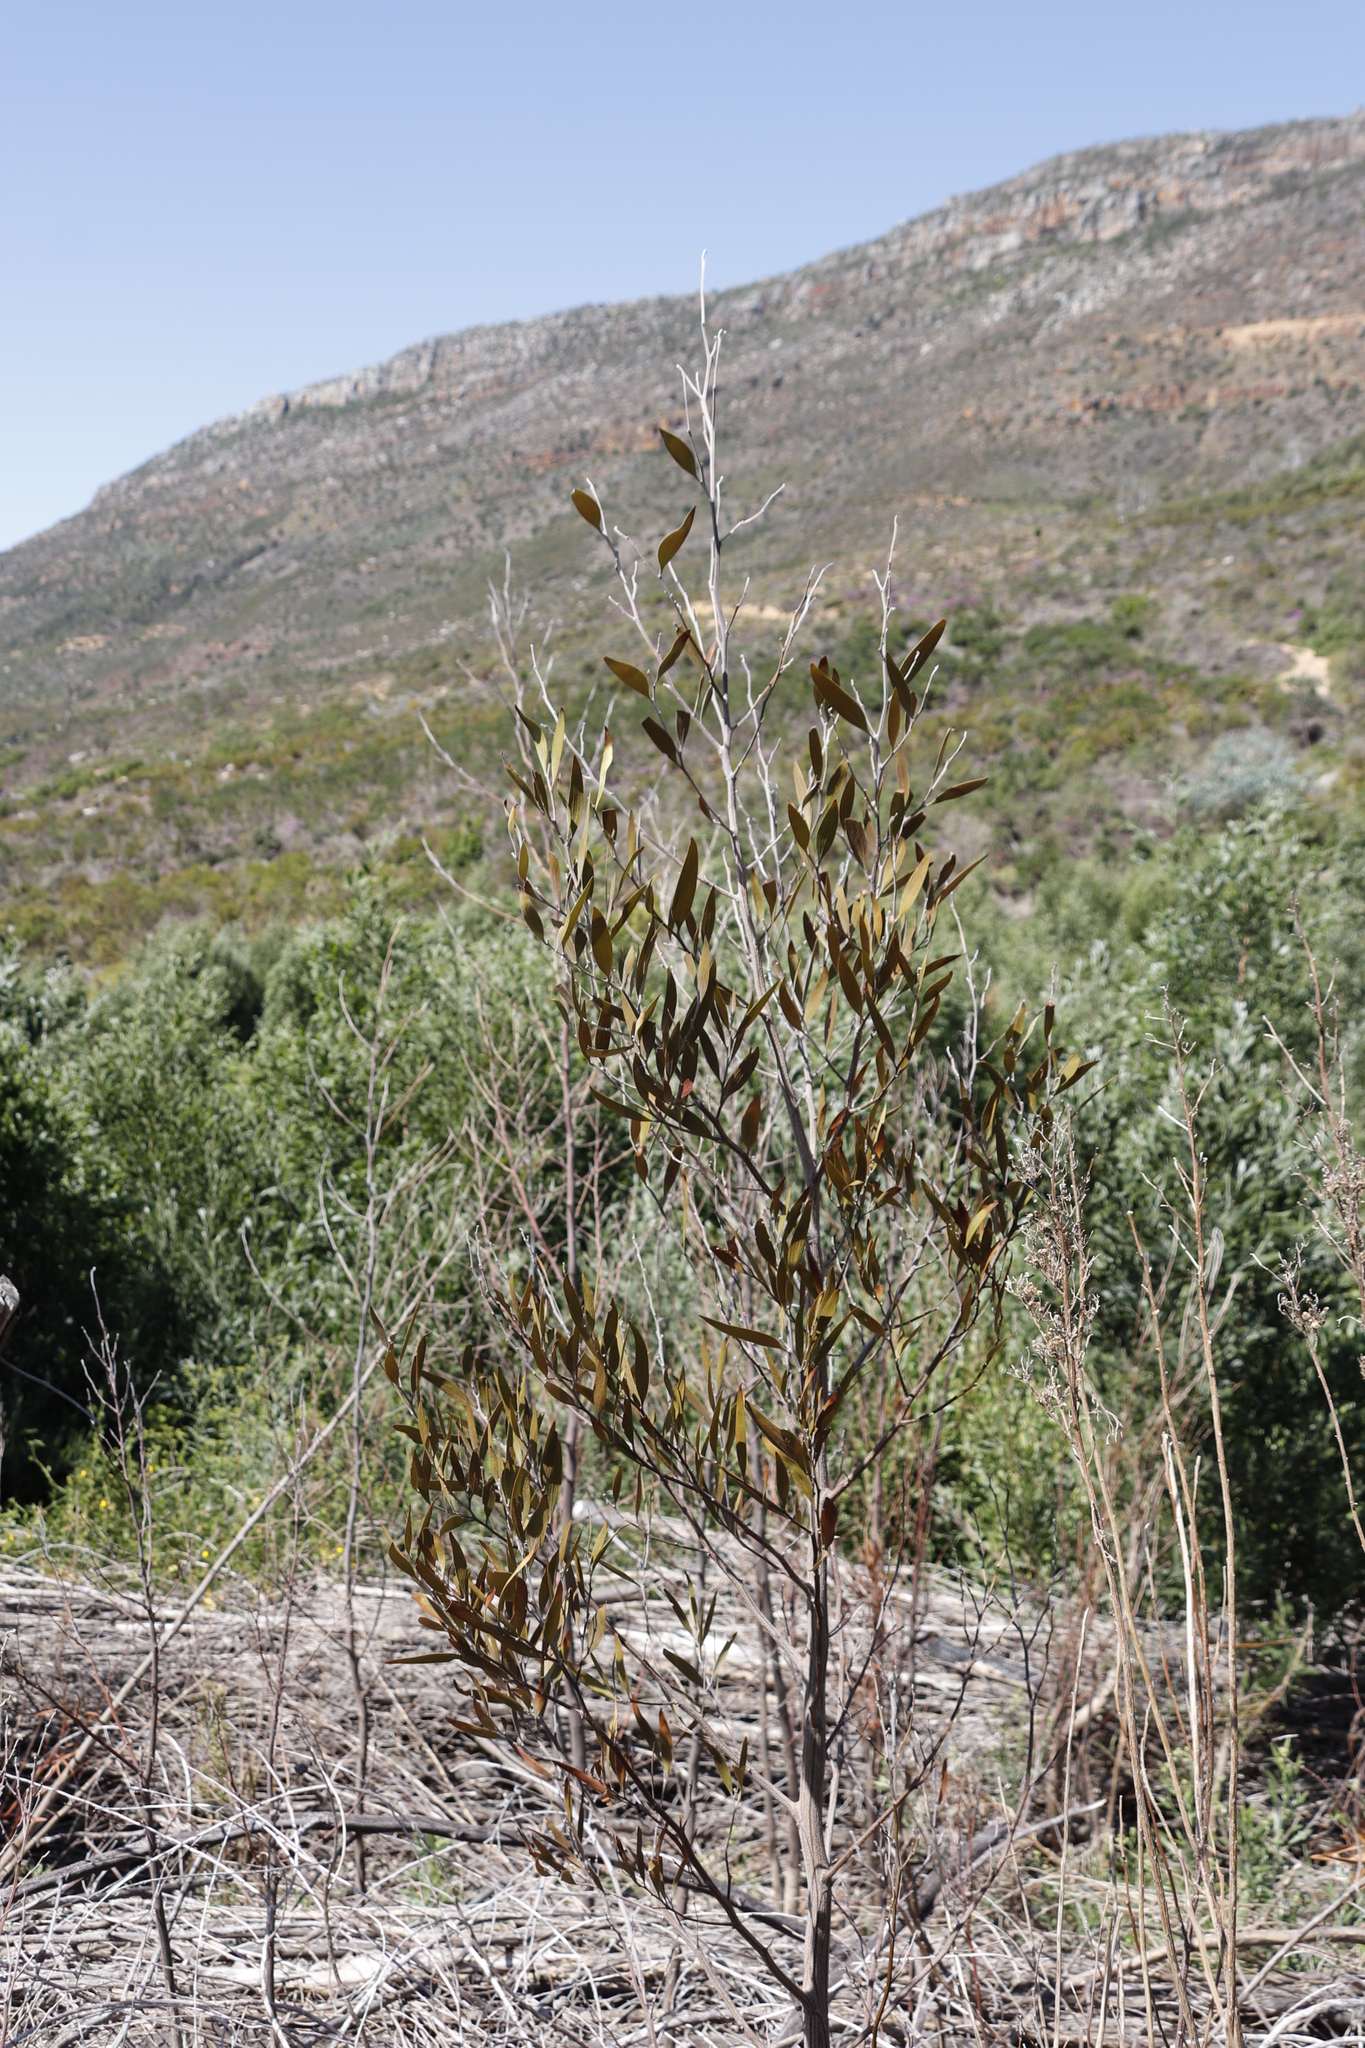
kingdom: Plantae
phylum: Tracheophyta
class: Magnoliopsida
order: Fabales
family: Fabaceae
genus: Acacia
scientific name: Acacia melanoxylon
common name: Blackwood
